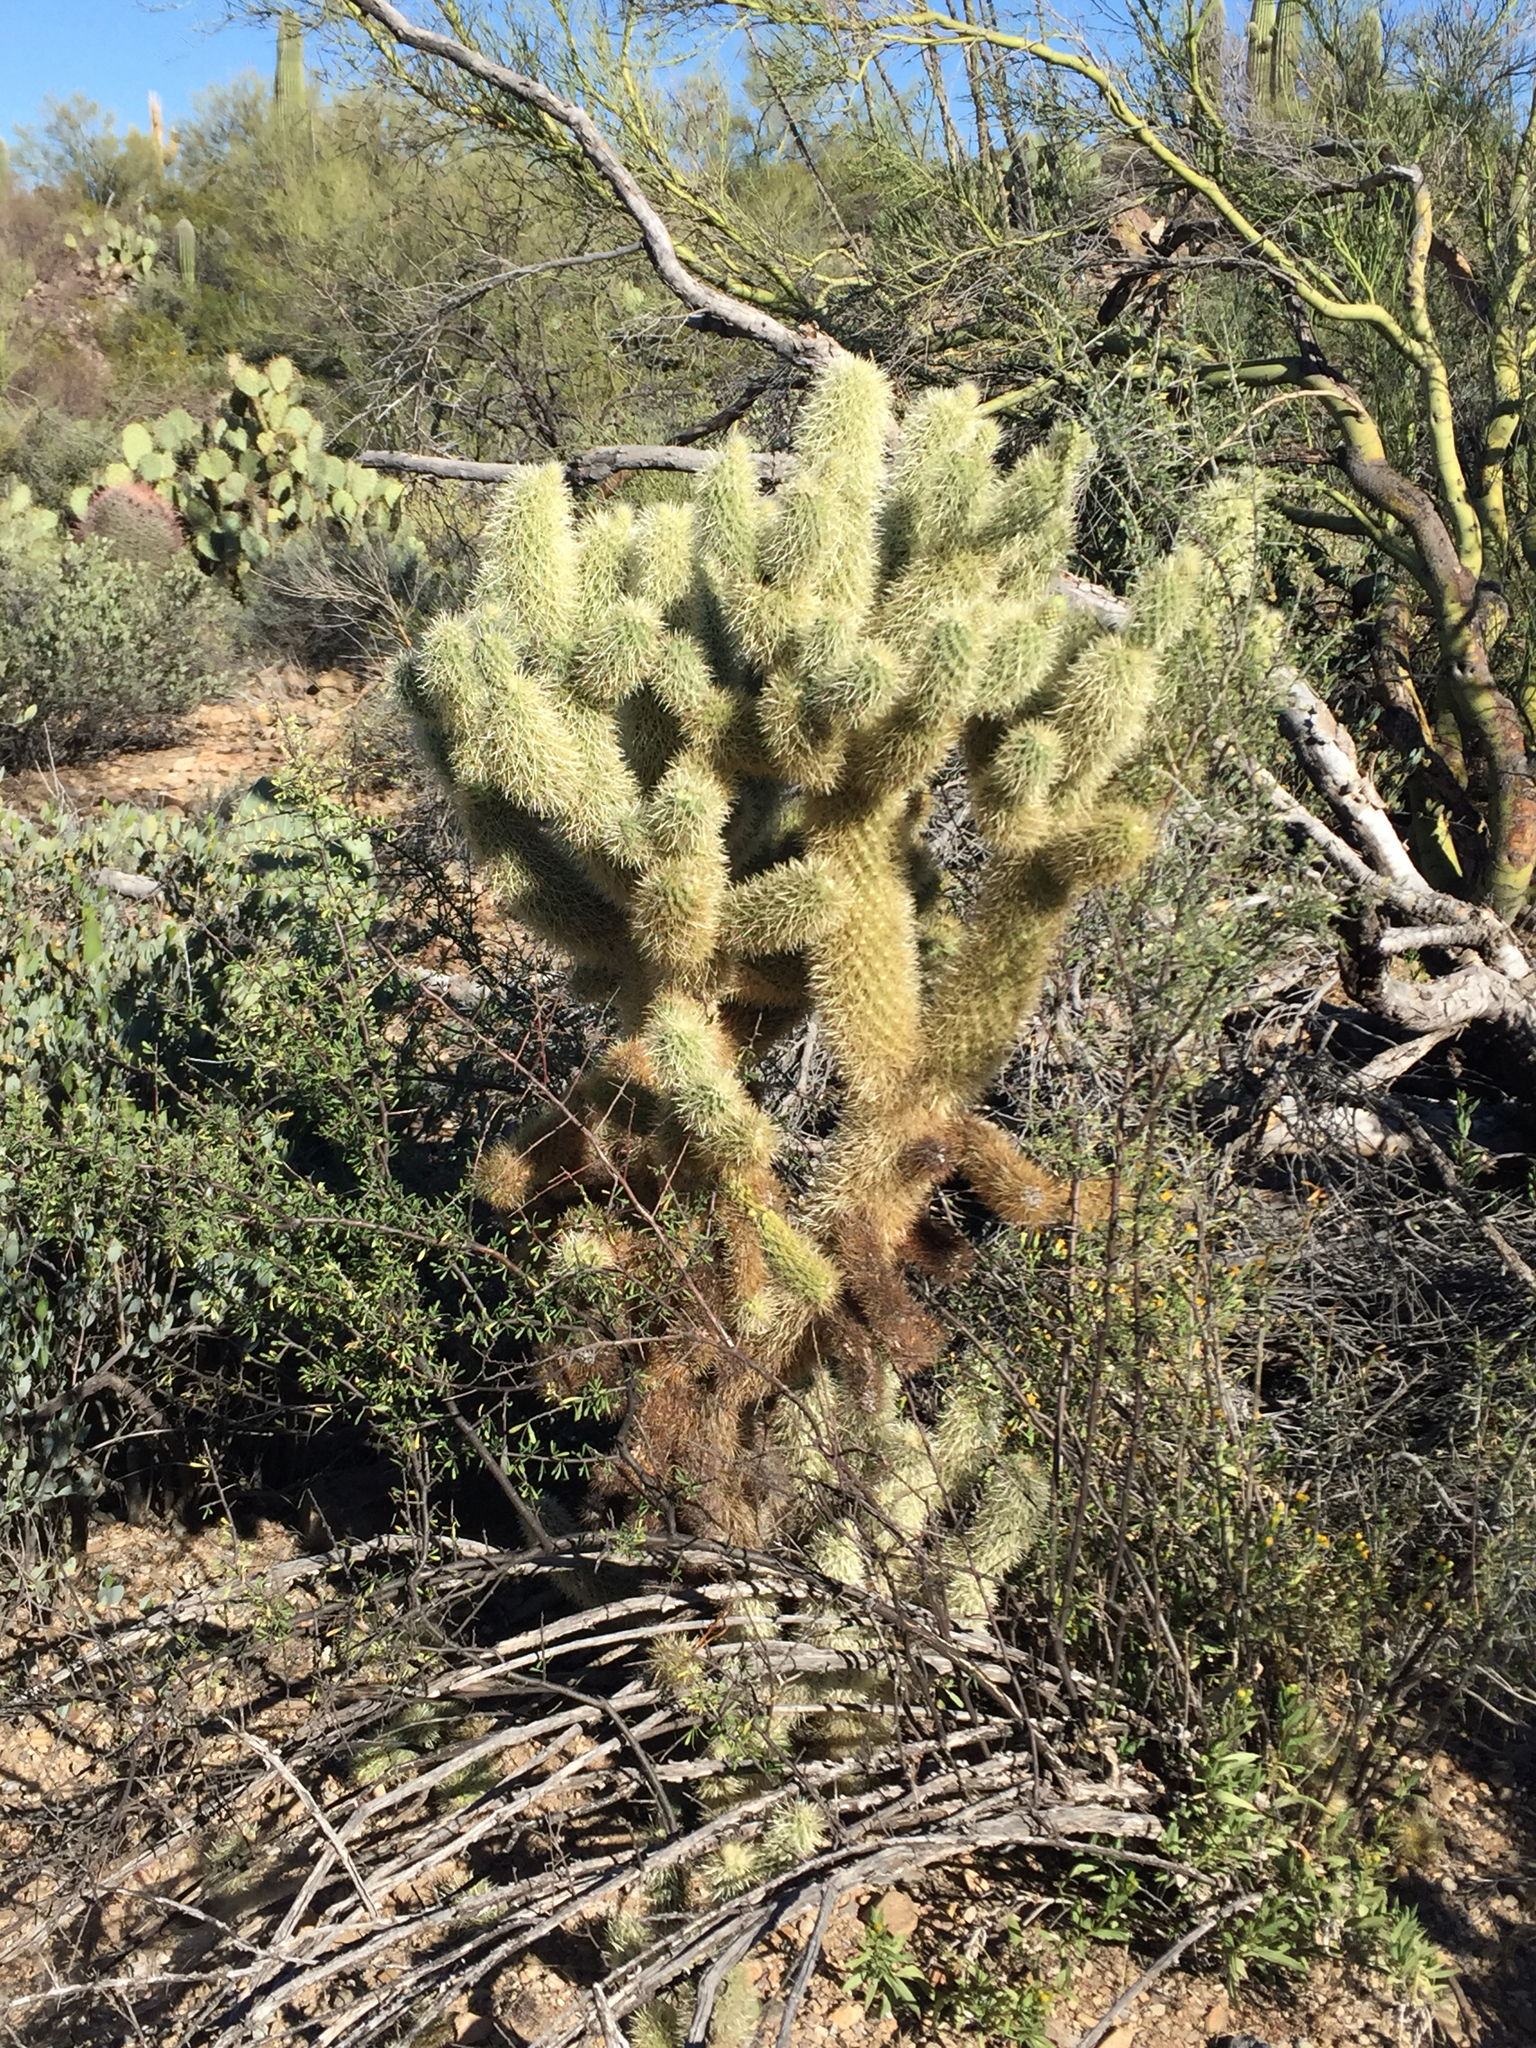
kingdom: Plantae
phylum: Tracheophyta
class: Magnoliopsida
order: Caryophyllales
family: Cactaceae
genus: Cylindropuntia
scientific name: Cylindropuntia fosbergii
